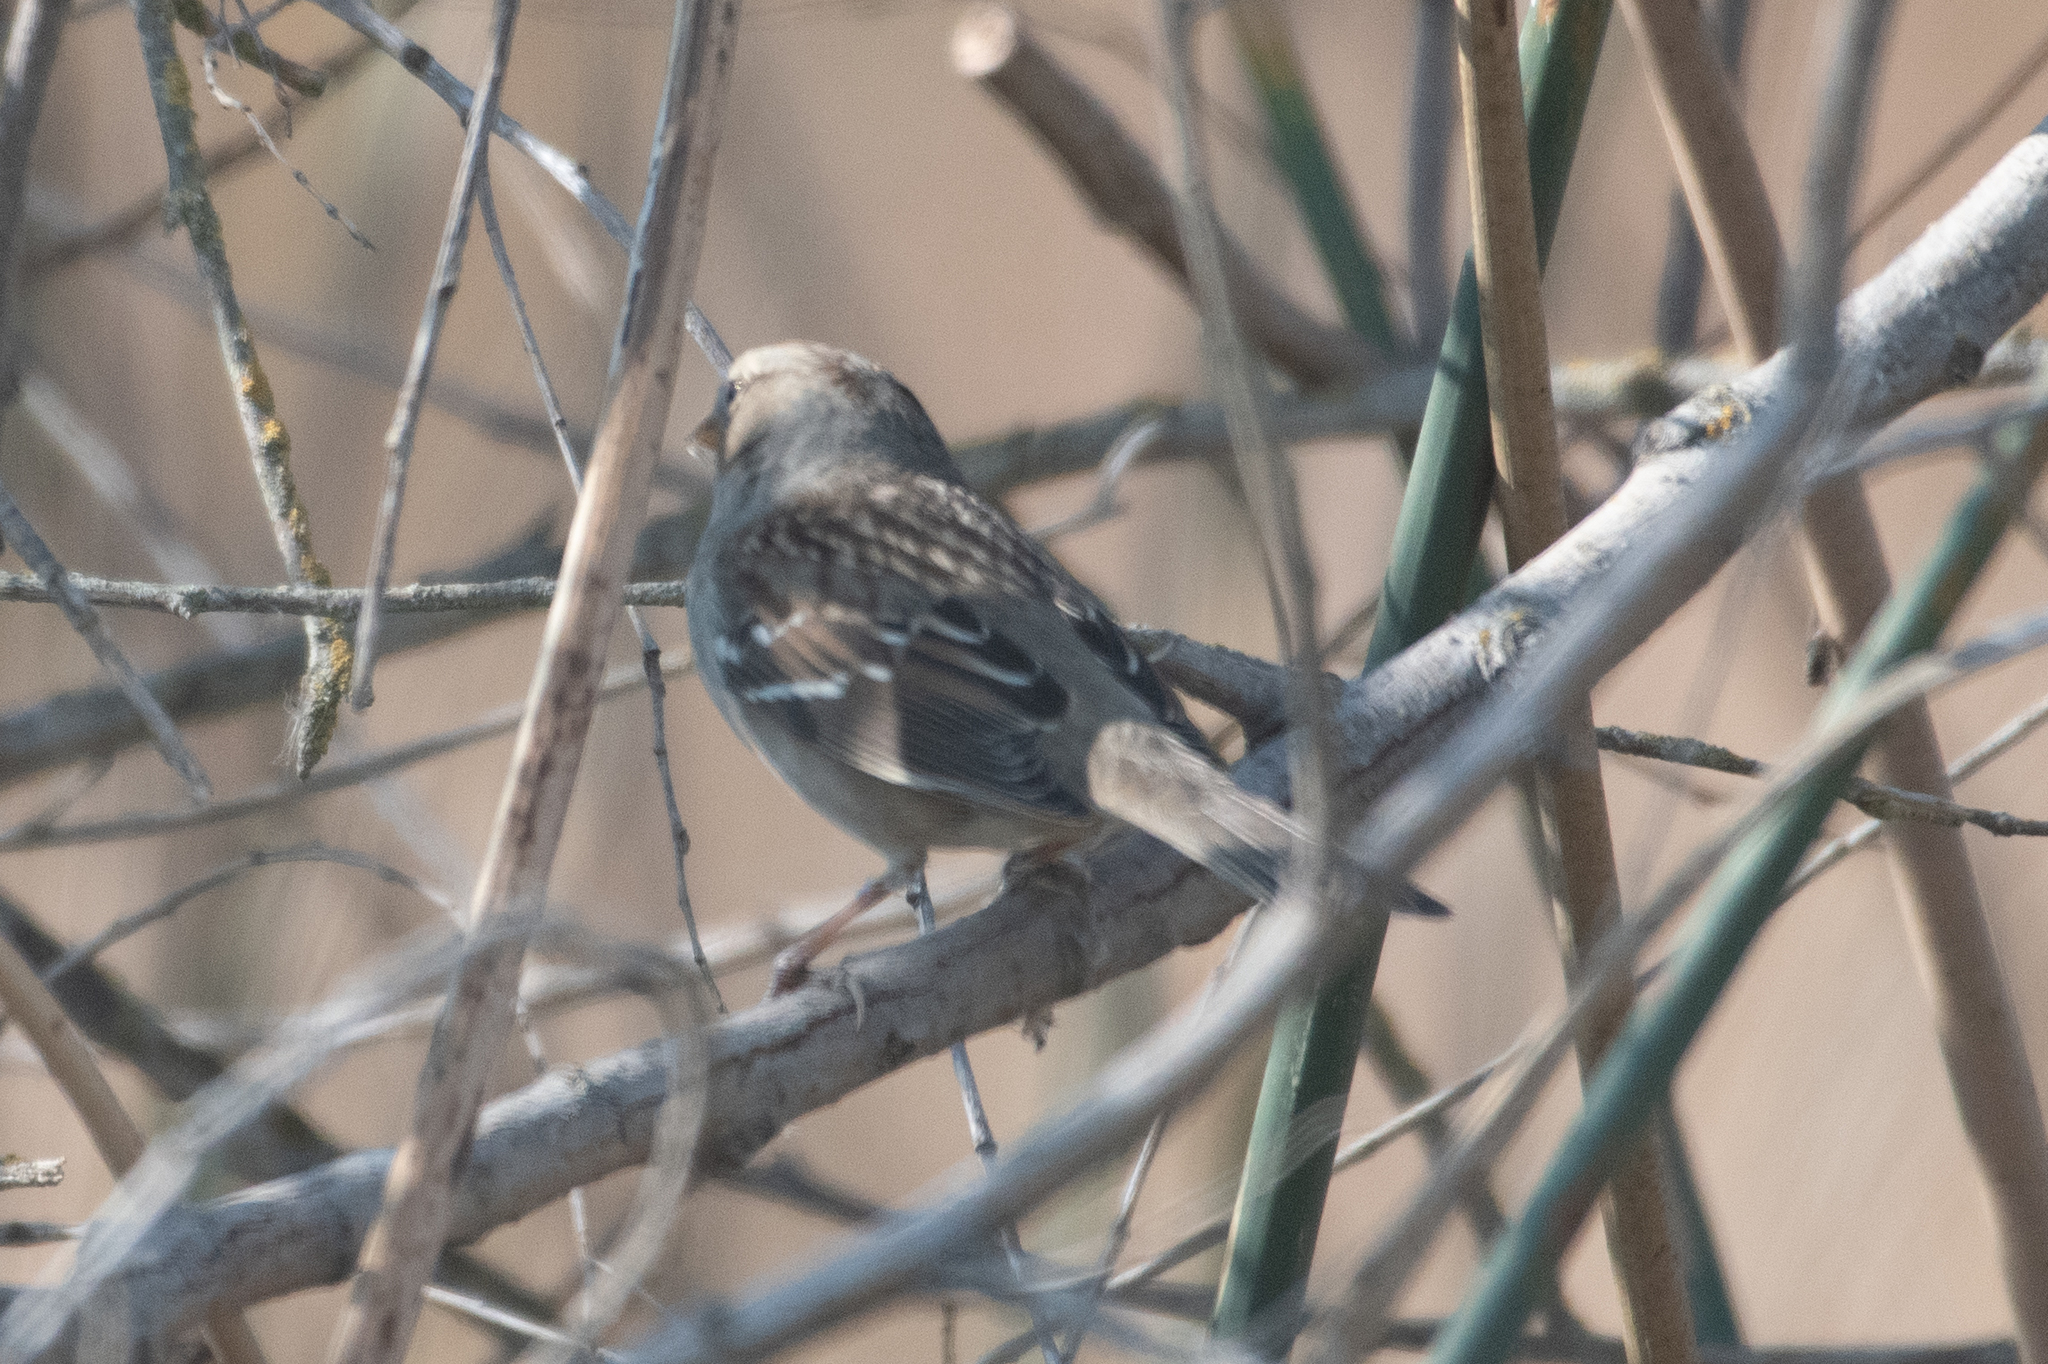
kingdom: Animalia
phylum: Chordata
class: Aves
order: Passeriformes
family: Passerellidae
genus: Zonotrichia
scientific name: Zonotrichia leucophrys
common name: White-crowned sparrow
